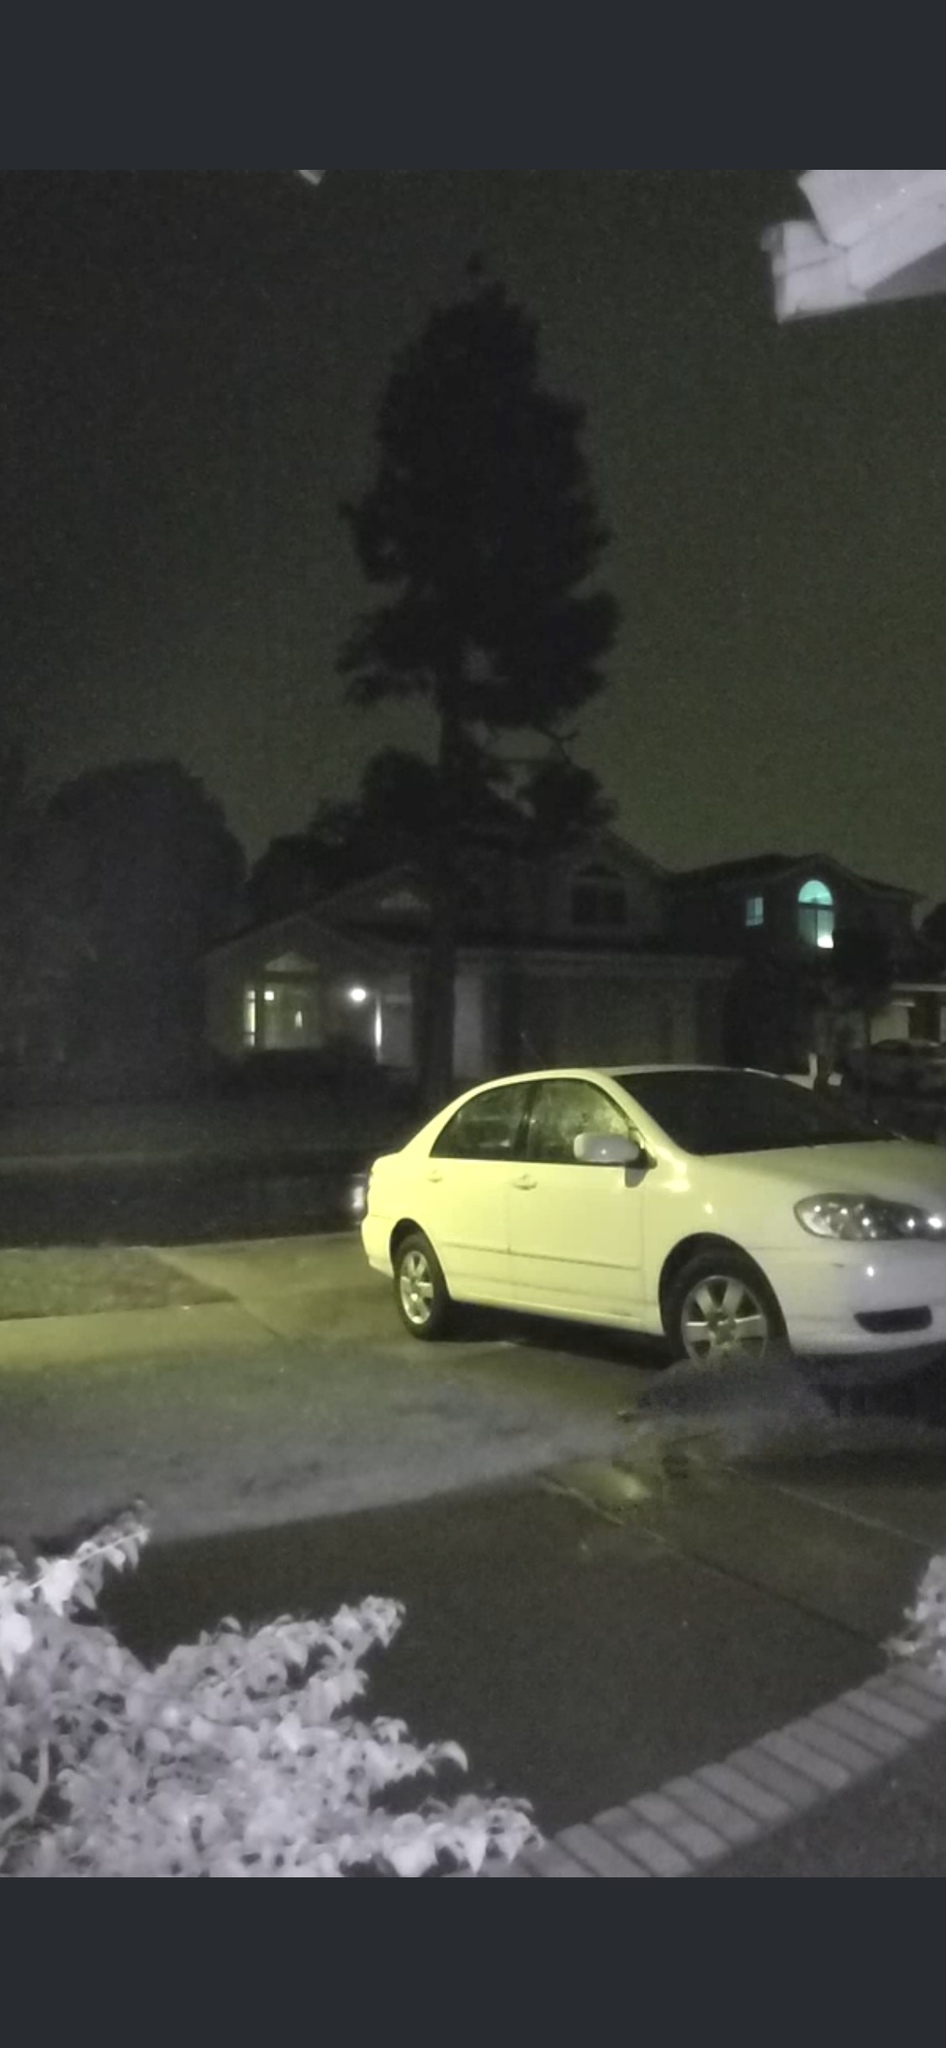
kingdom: Animalia
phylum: Chordata
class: Mammalia
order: Carnivora
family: Procyonidae
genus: Procyon
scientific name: Procyon lotor
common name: Raccoon
